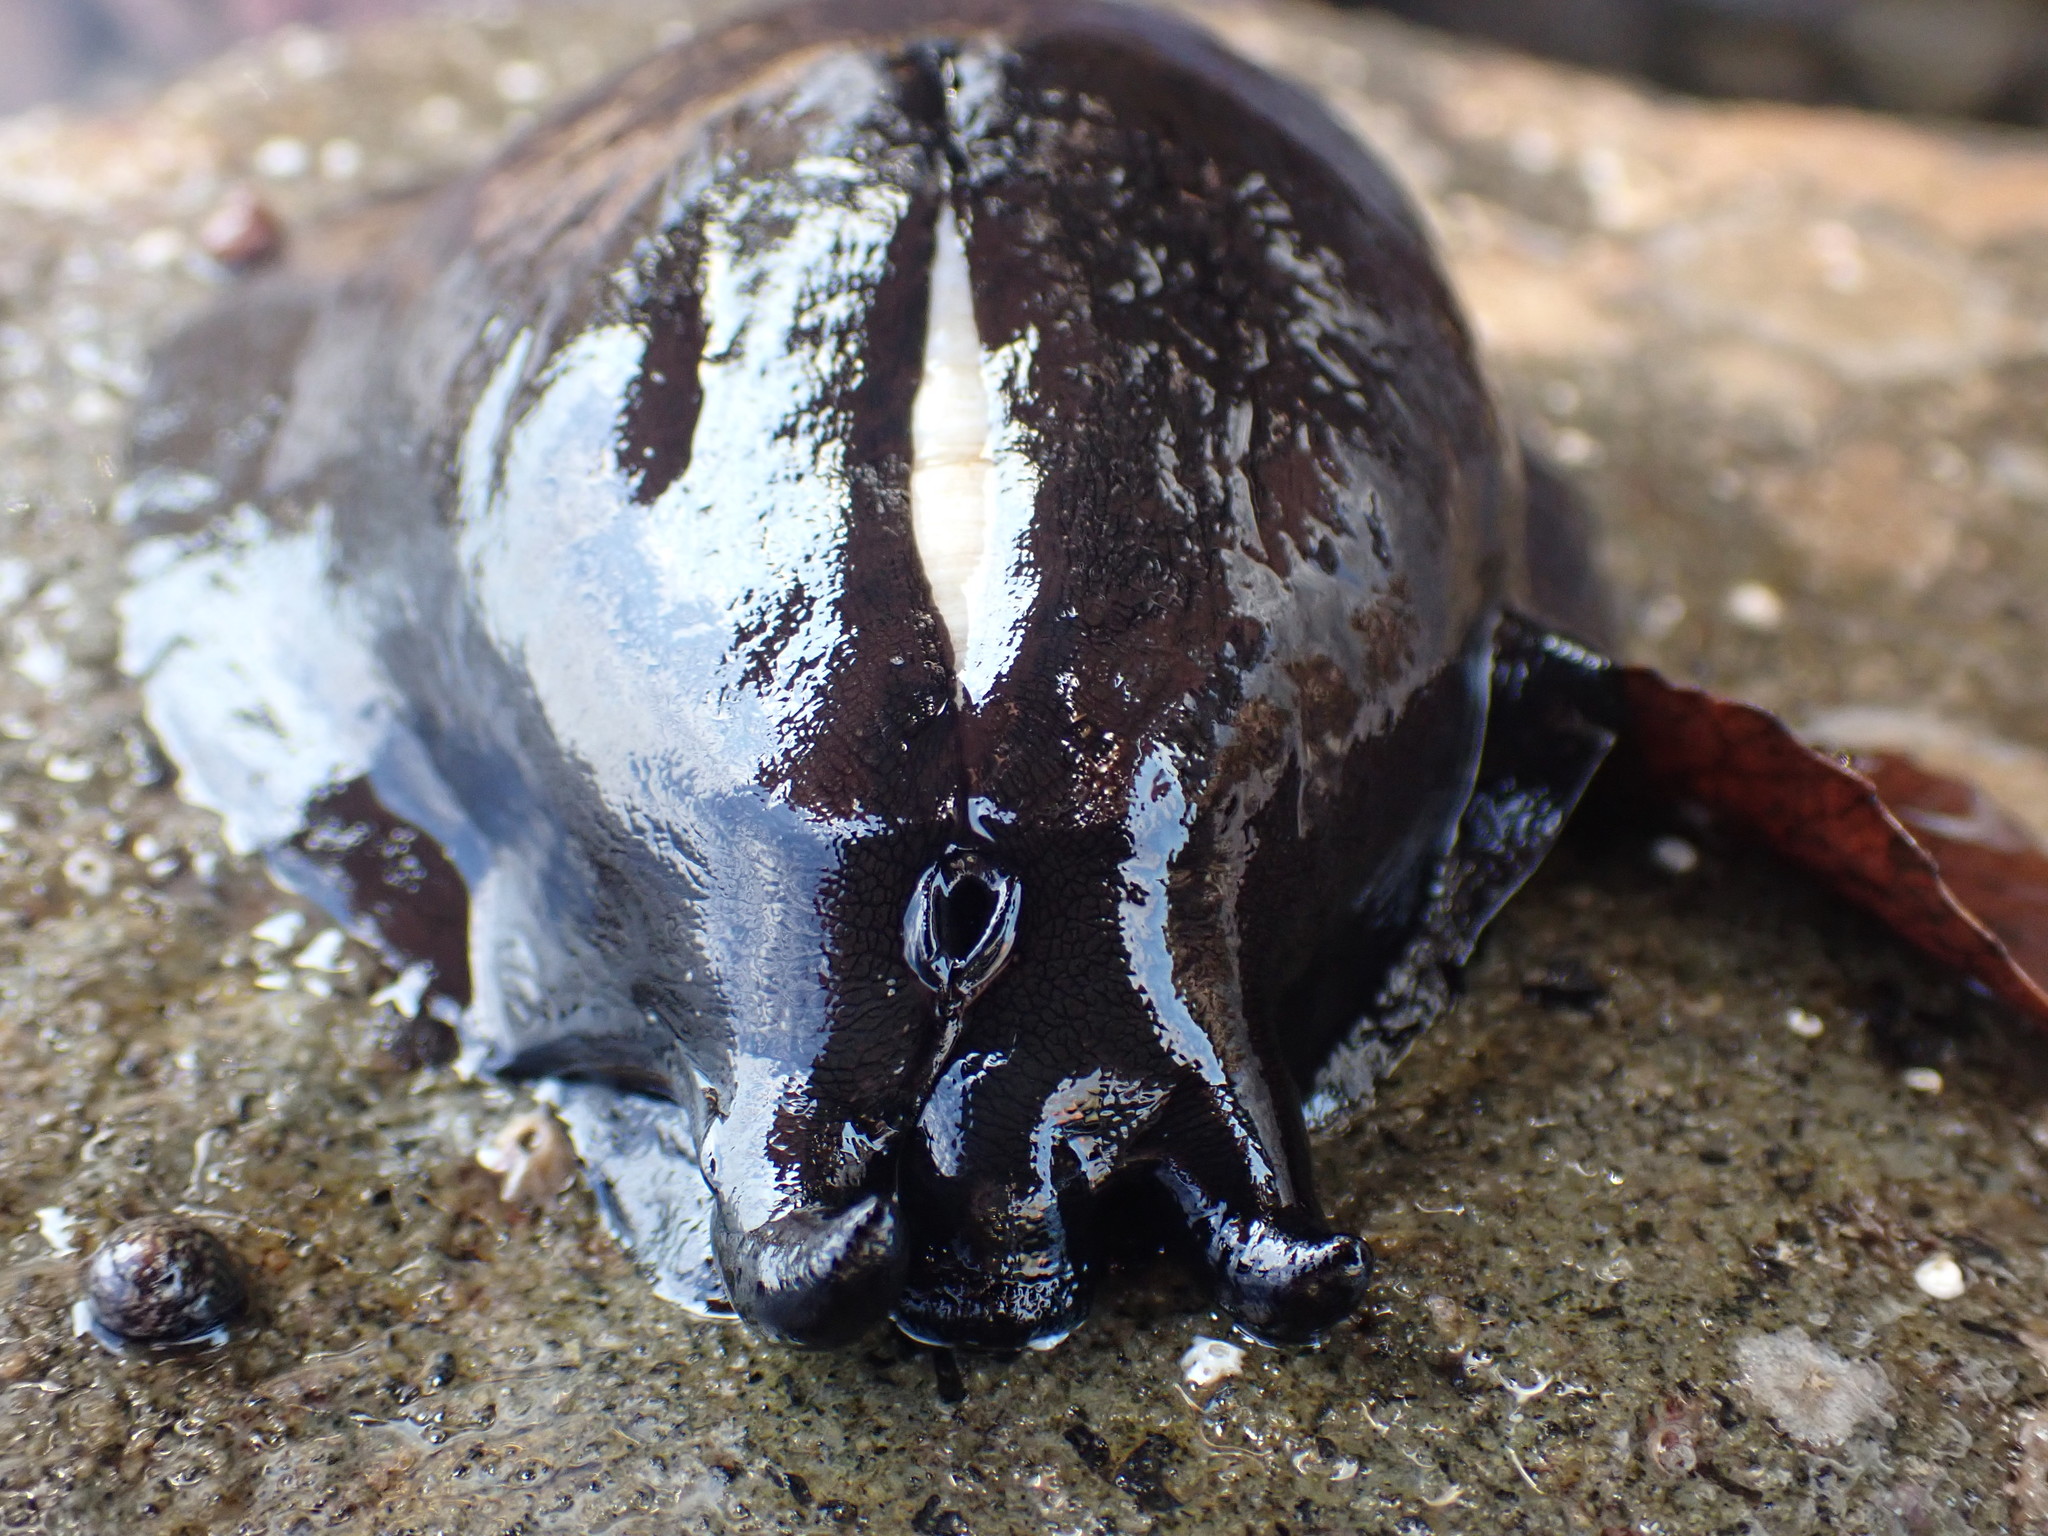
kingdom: Animalia
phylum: Mollusca
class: Gastropoda
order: Lepetellida
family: Fissurellidae
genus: Scutus
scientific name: Scutus breviculus
